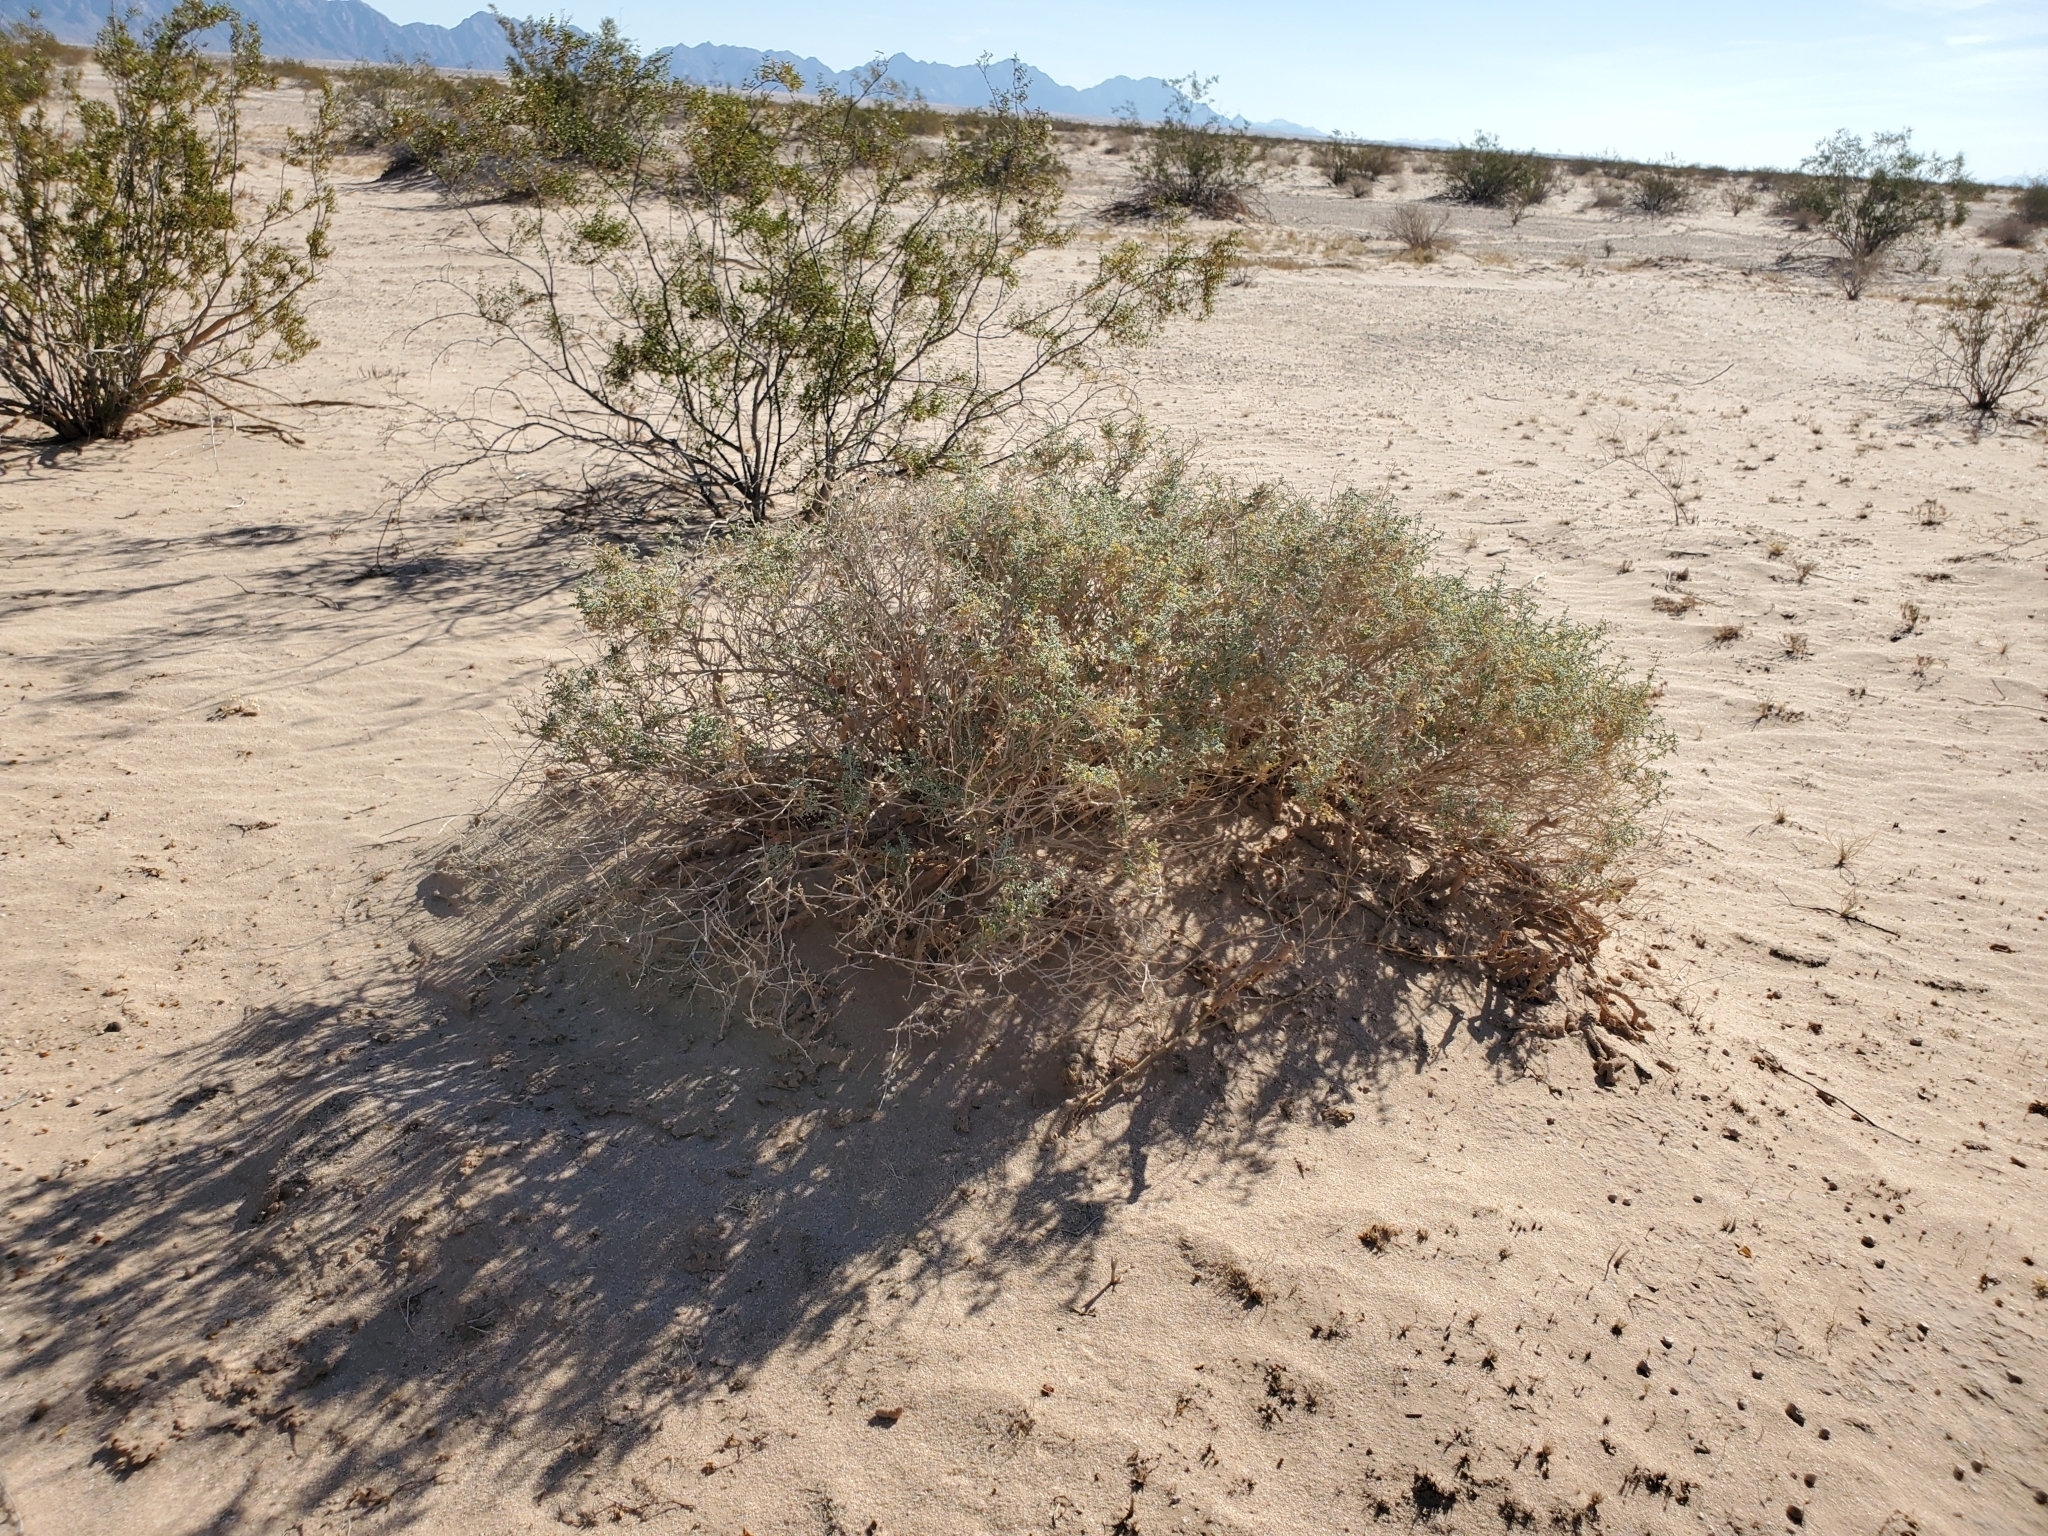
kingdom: Plantae
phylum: Tracheophyta
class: Magnoliopsida
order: Asterales
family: Asteraceae
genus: Ambrosia
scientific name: Ambrosia dumosa
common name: Bur-sage
